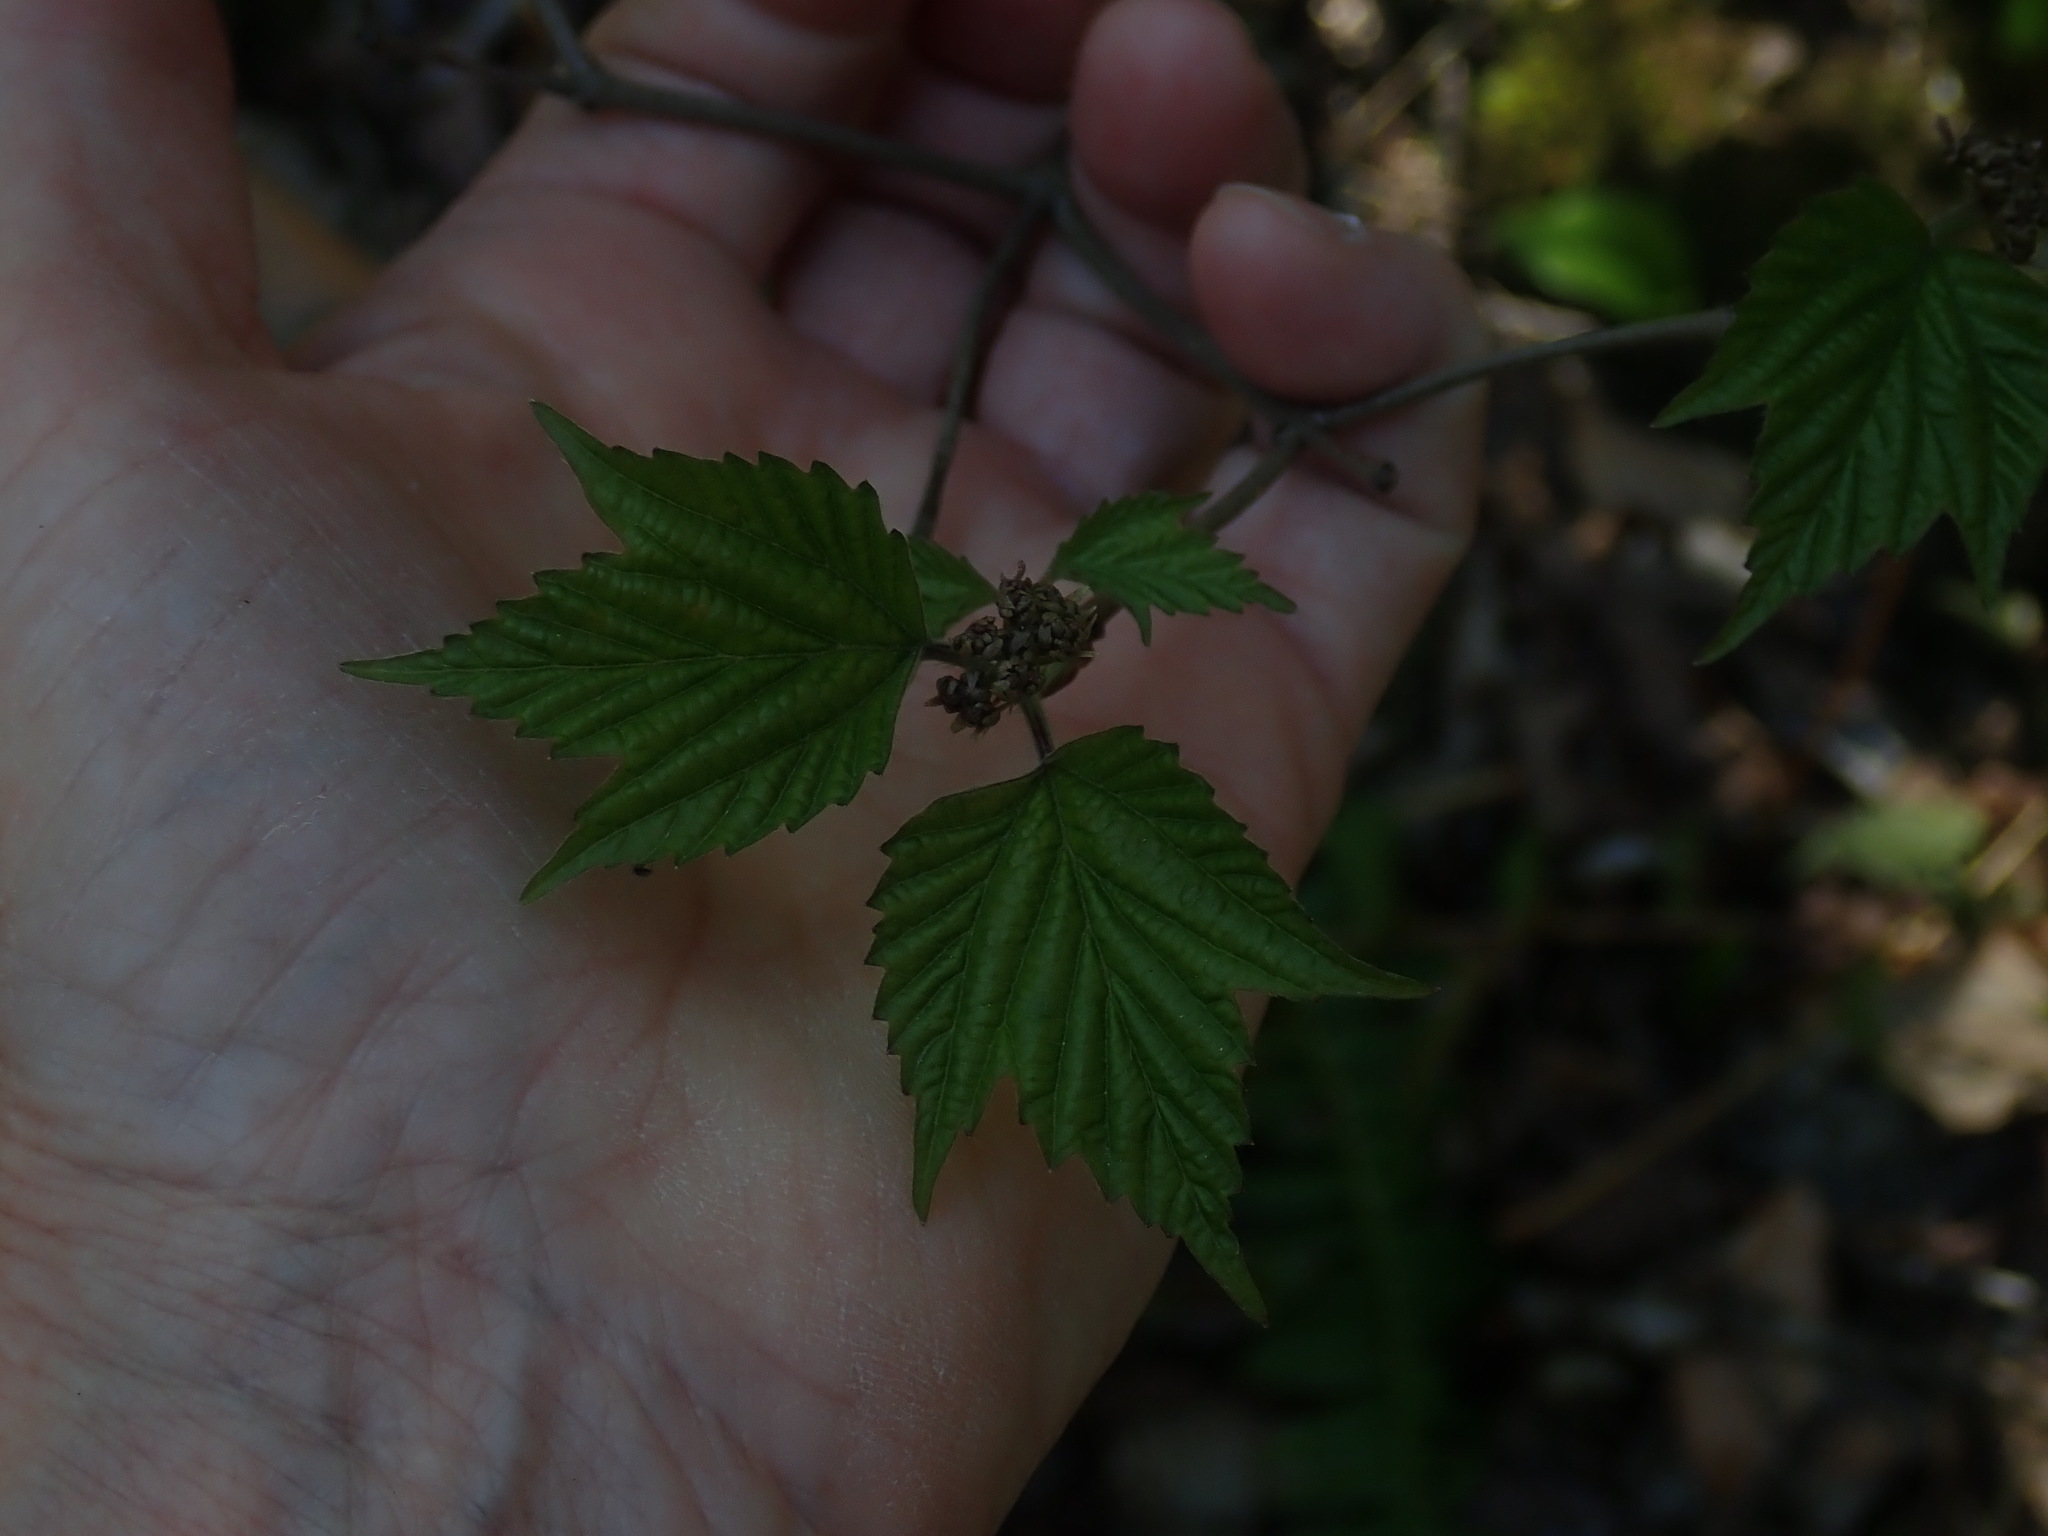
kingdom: Plantae
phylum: Tracheophyta
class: Magnoliopsida
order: Dipsacales
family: Viburnaceae
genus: Viburnum
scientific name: Viburnum acerifolium
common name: Dockmackie
